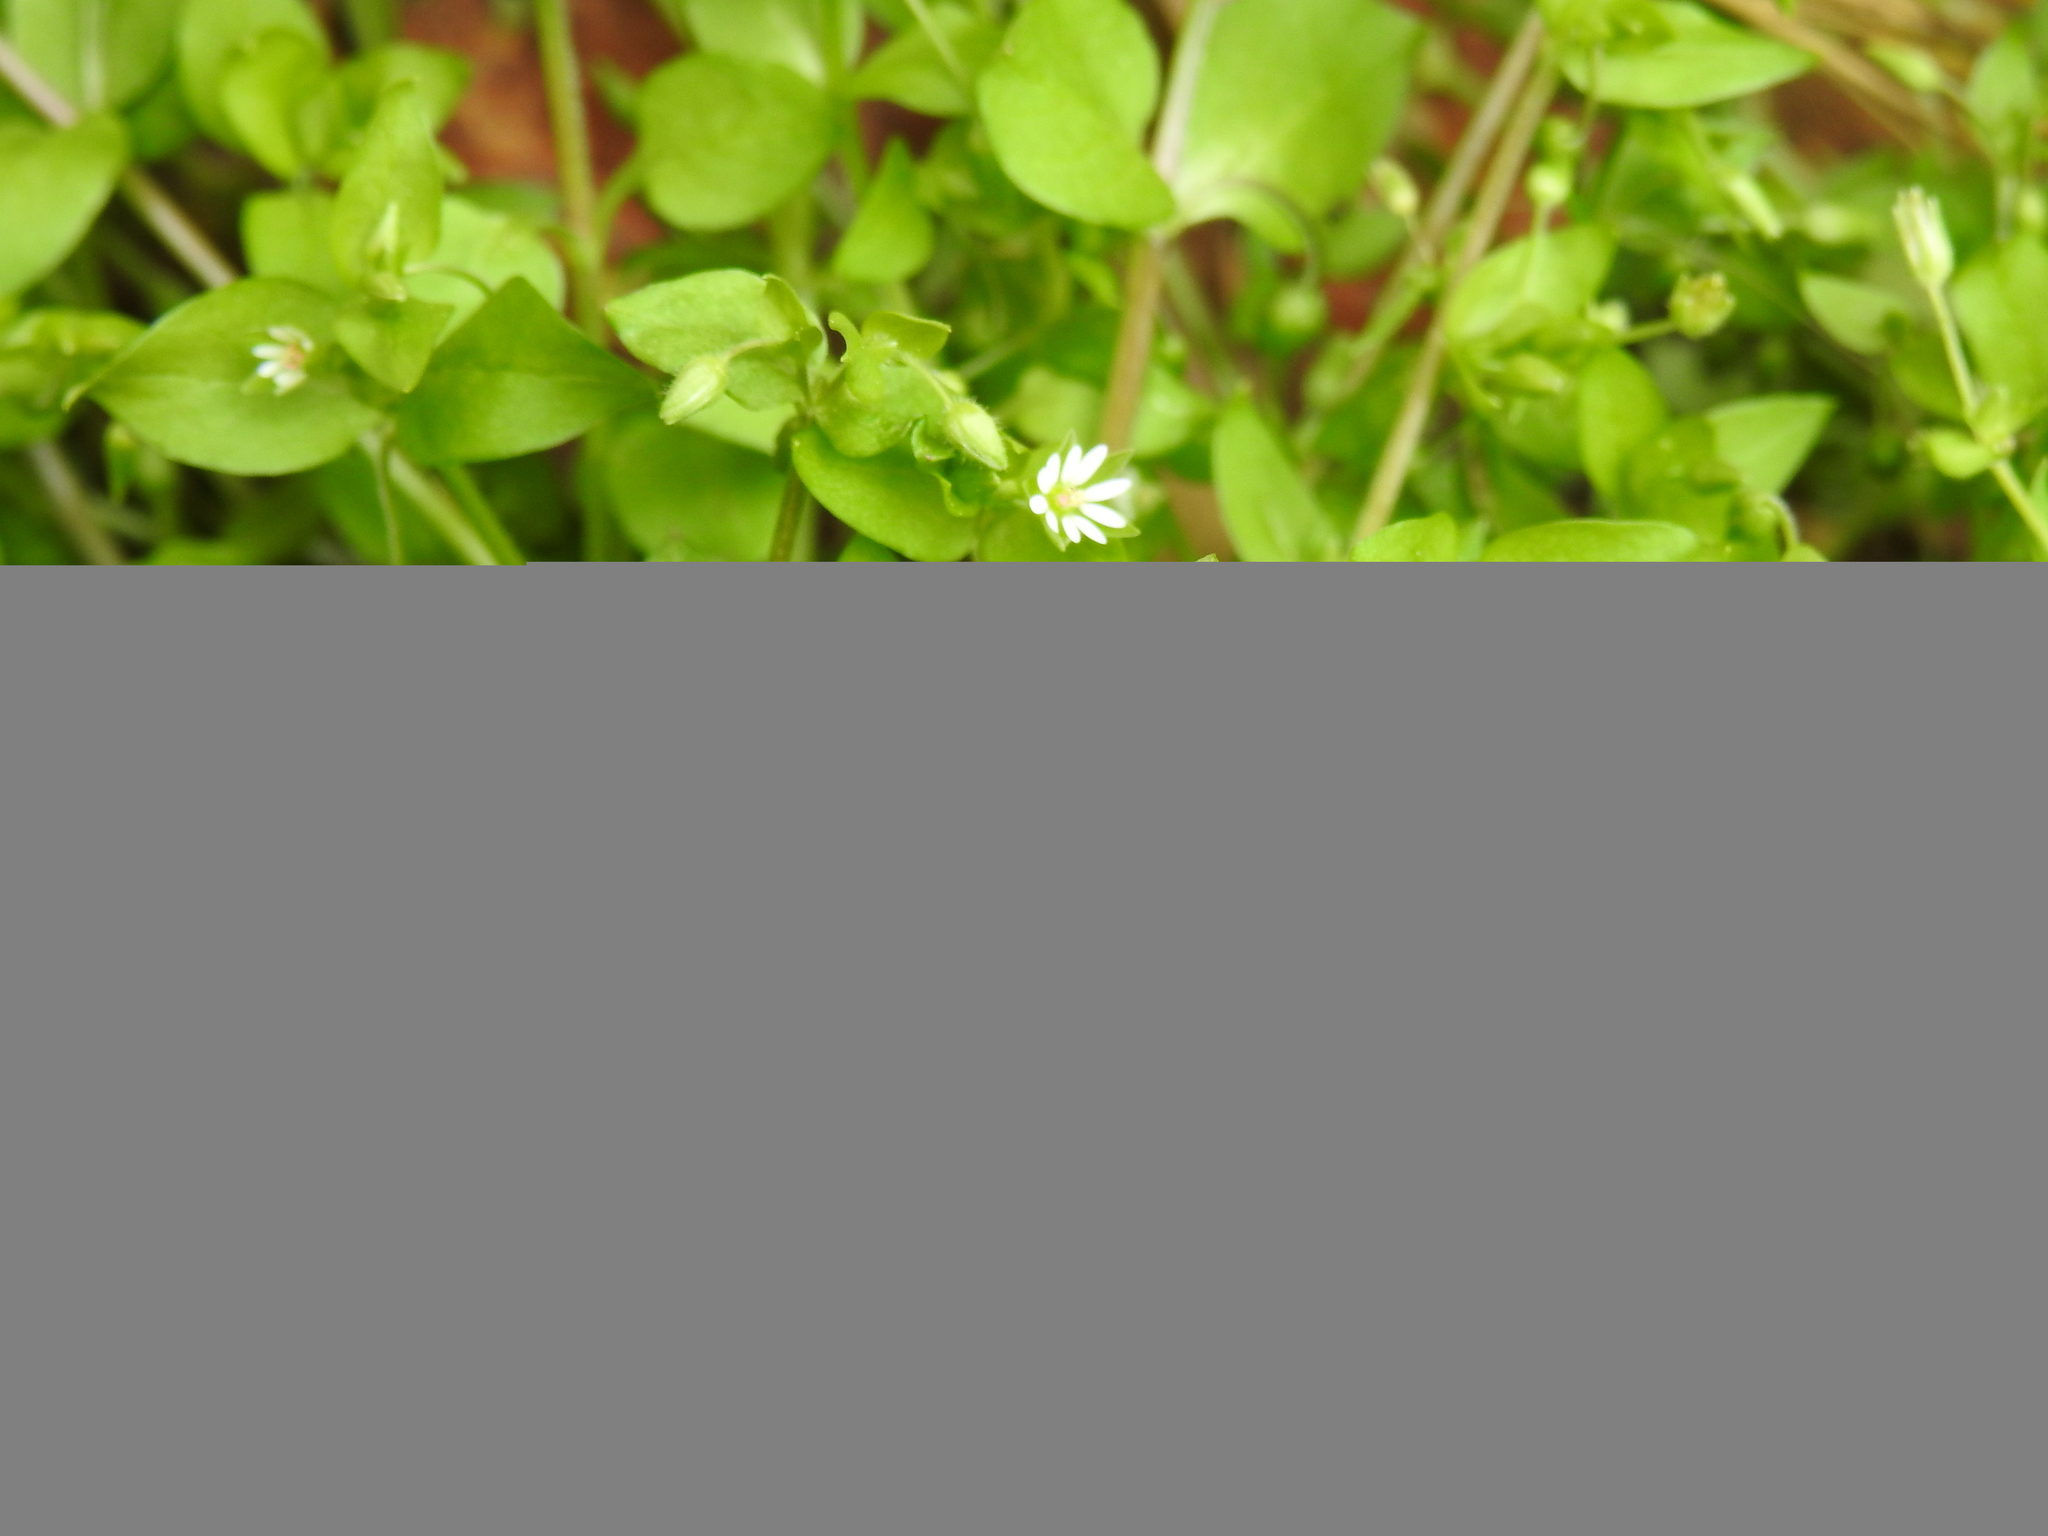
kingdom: Plantae
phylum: Tracheophyta
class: Magnoliopsida
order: Caryophyllales
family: Caryophyllaceae
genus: Stellaria
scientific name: Stellaria media
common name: Common chickweed
